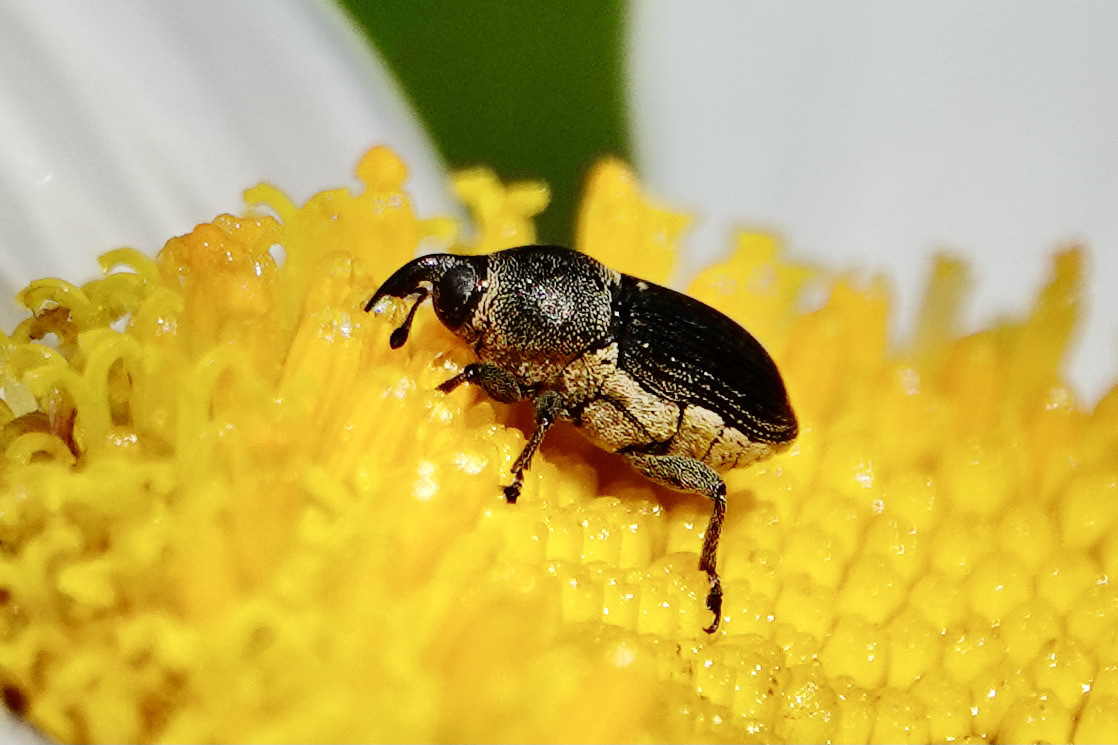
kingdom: Animalia
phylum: Arthropoda
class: Insecta
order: Coleoptera
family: Curculionidae
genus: Odontocorynus
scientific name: Odontocorynus salebrosus
